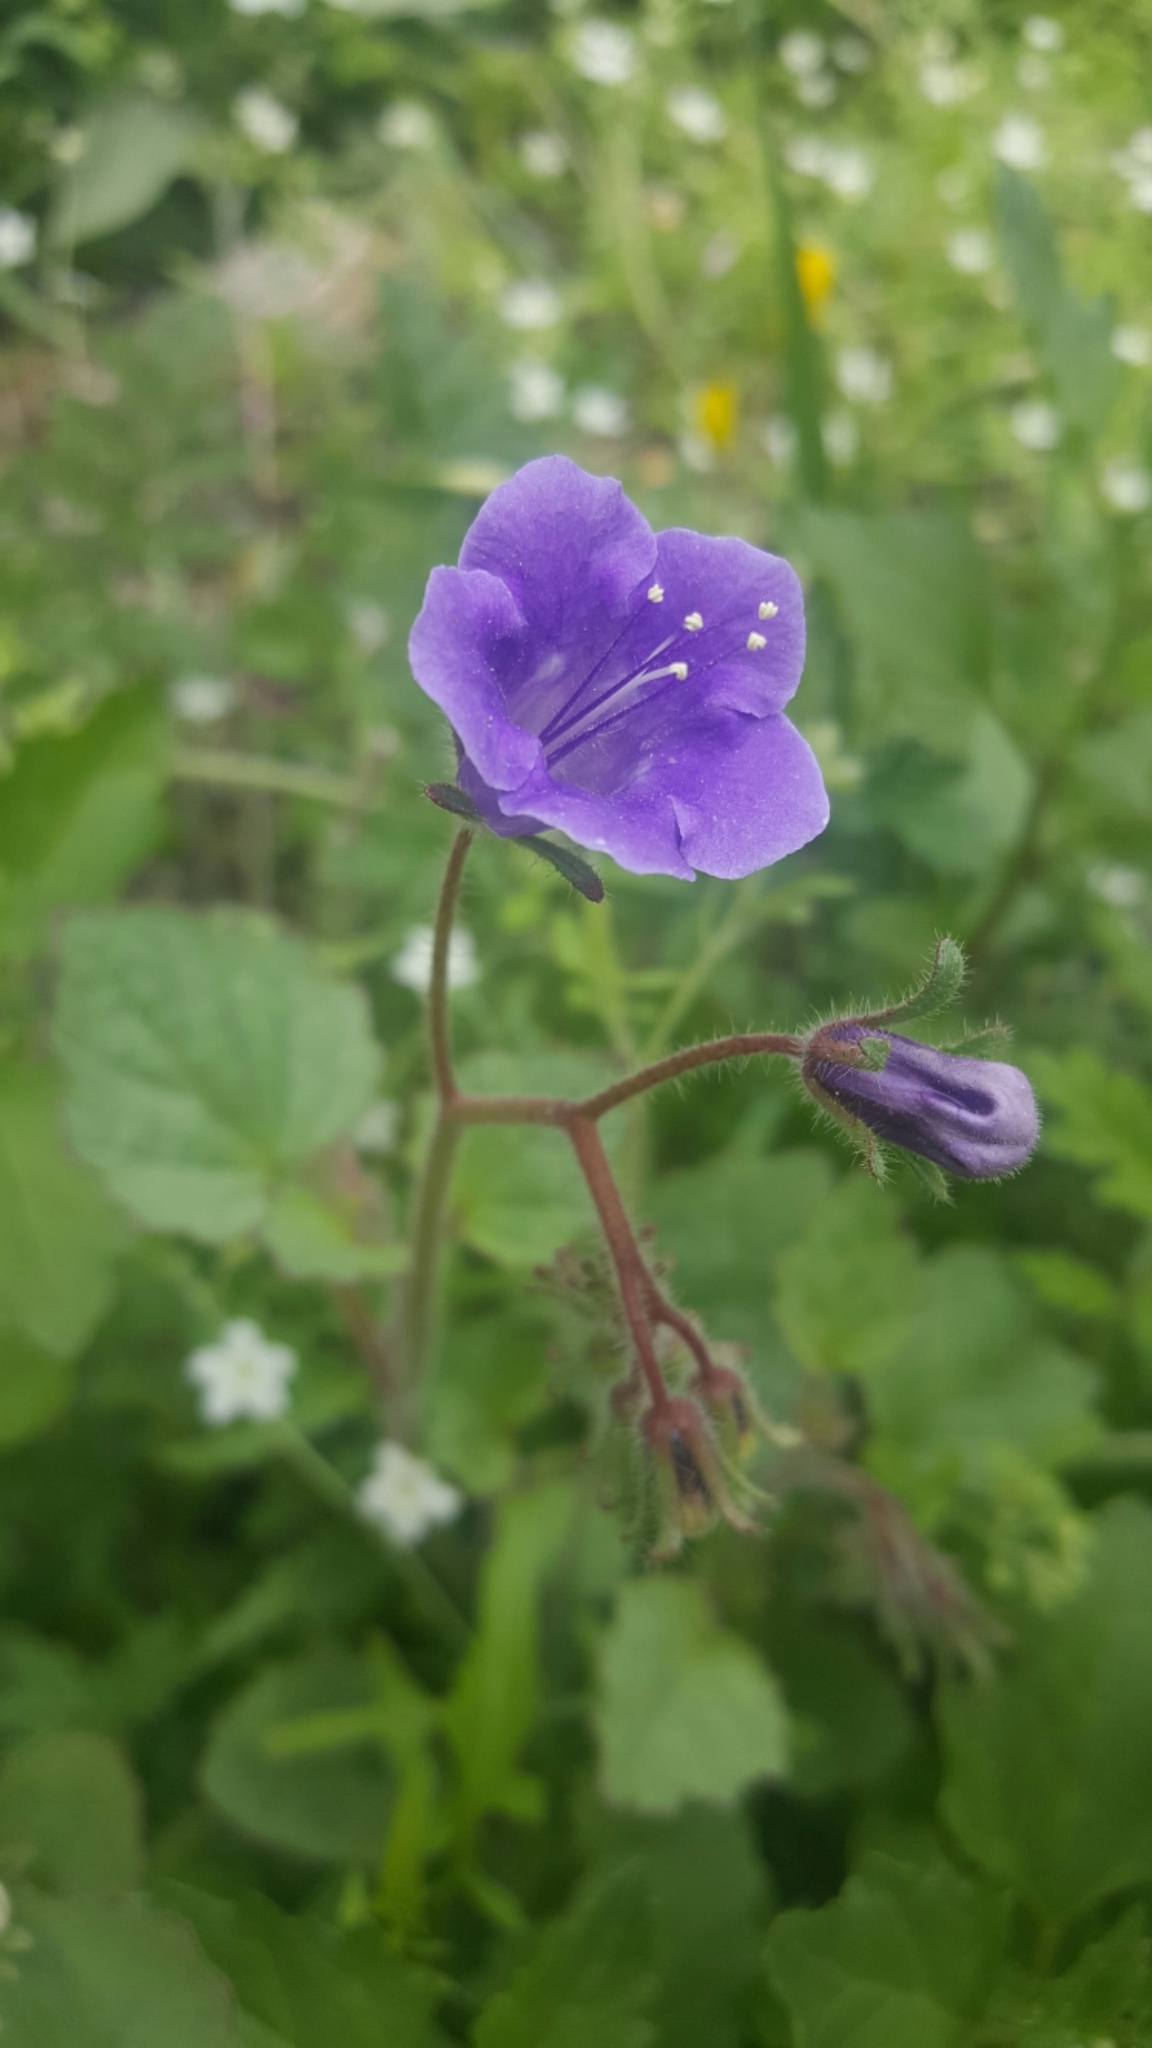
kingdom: Plantae
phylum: Tracheophyta
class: Magnoliopsida
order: Boraginales
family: Hydrophyllaceae
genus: Phacelia
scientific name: Phacelia minor
